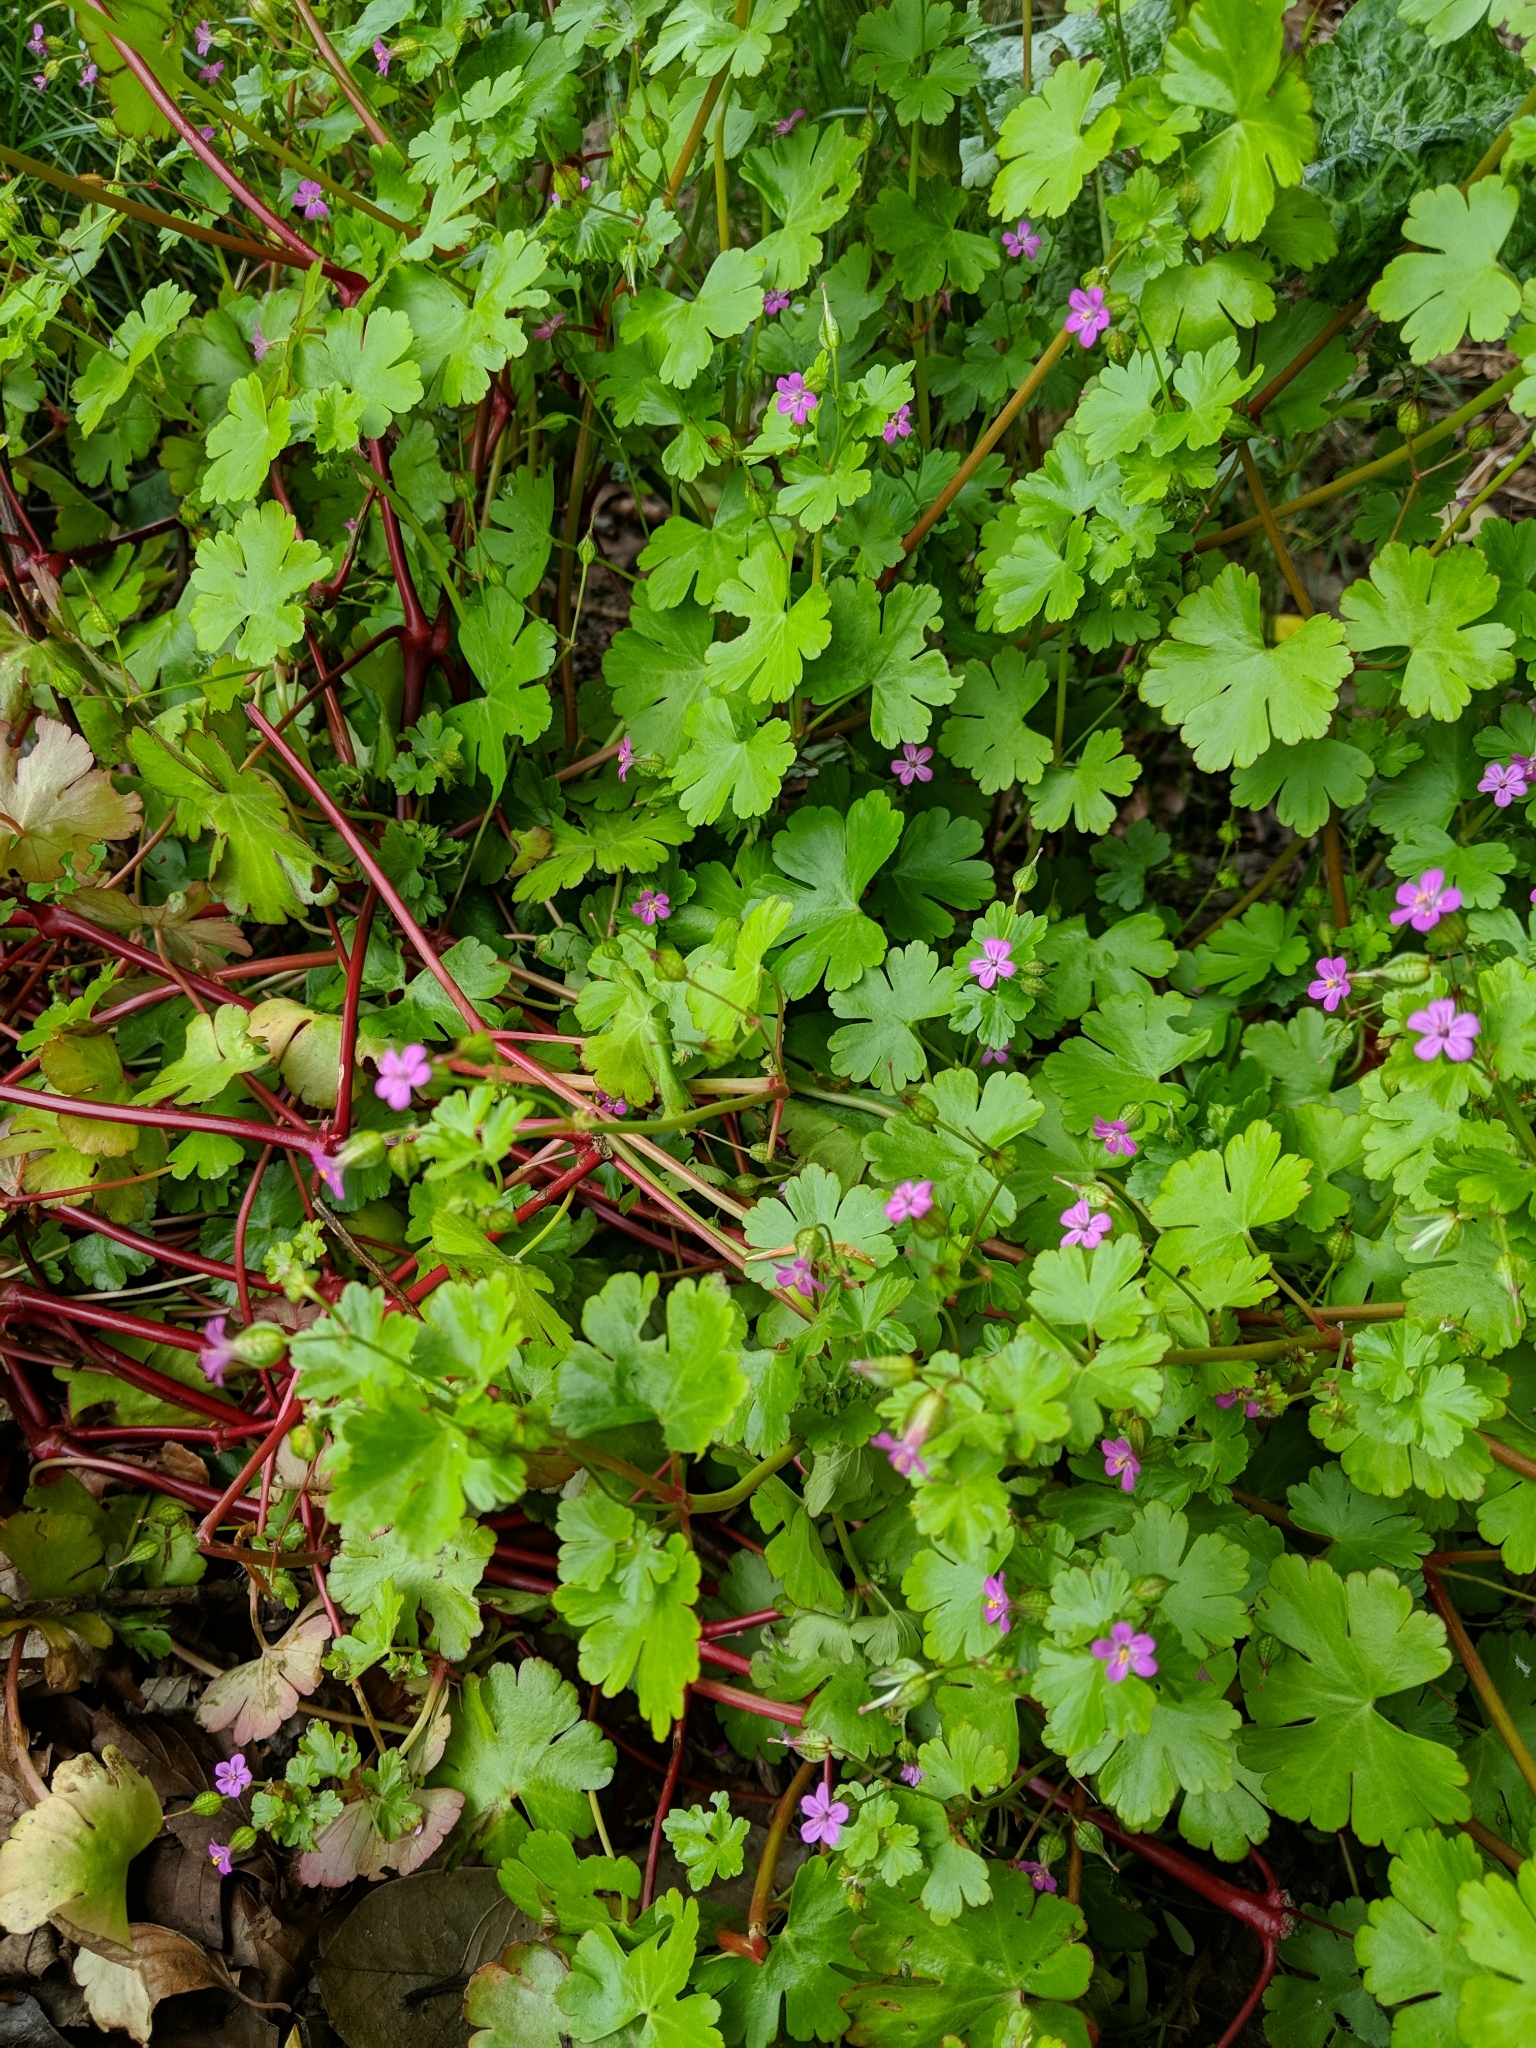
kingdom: Plantae
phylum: Tracheophyta
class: Magnoliopsida
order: Geraniales
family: Geraniaceae
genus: Geranium
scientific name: Geranium lucidum
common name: Shining crane's-bill
